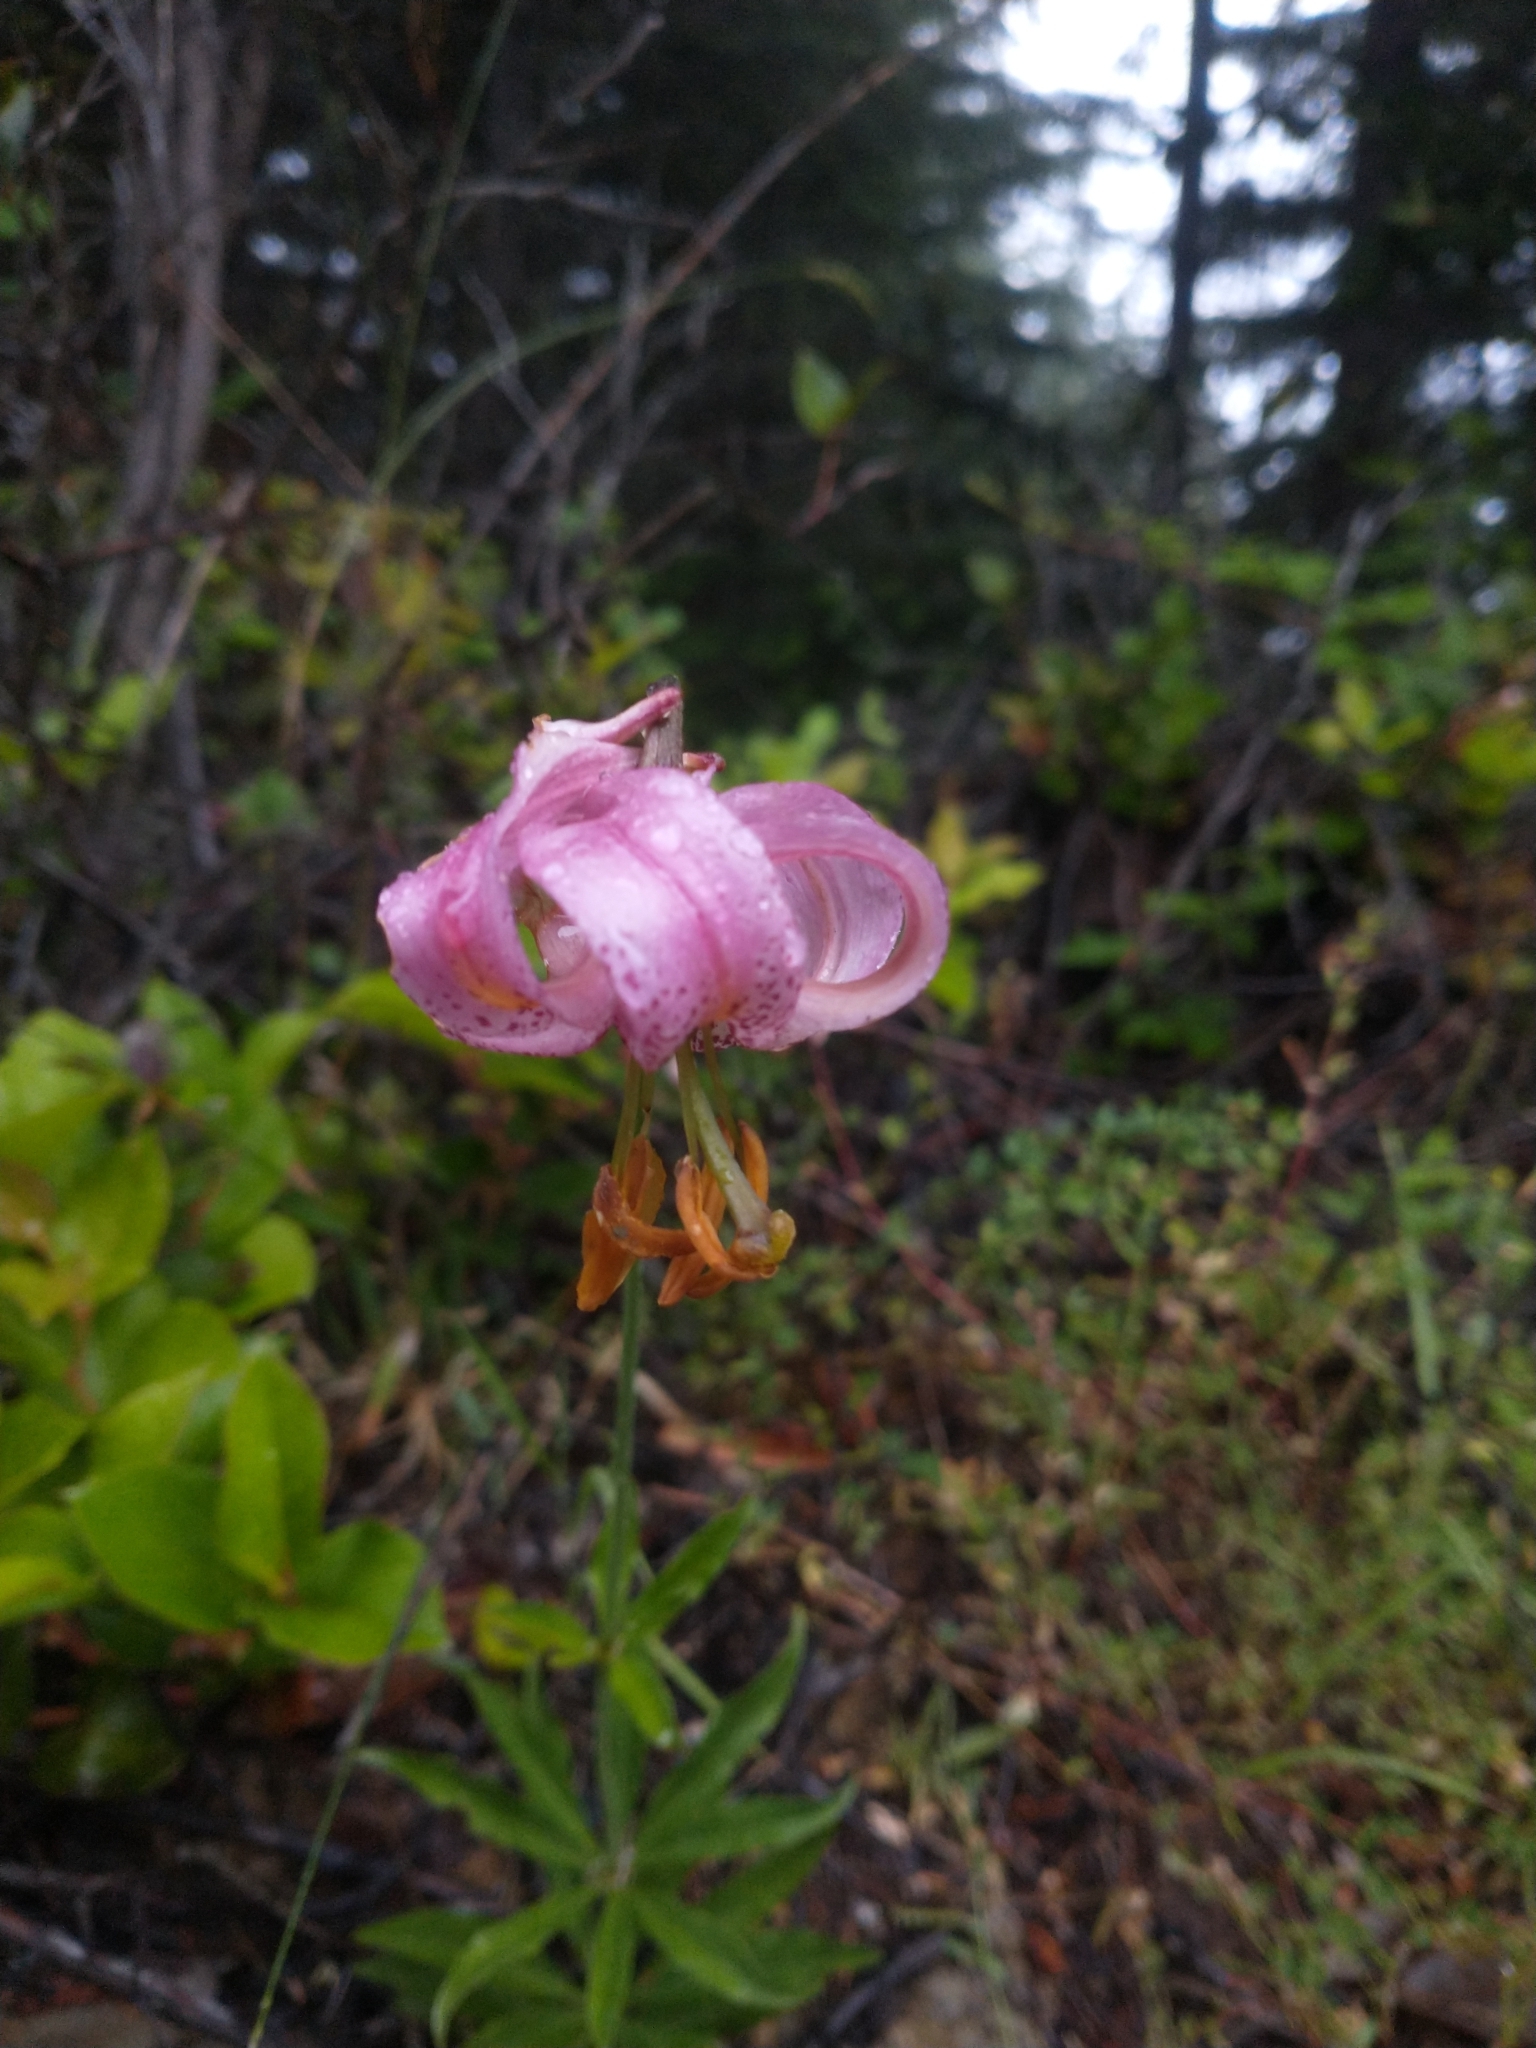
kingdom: Plantae
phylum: Tracheophyta
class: Liliopsida
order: Liliales
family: Liliaceae
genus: Lilium
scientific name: Lilium kelloggii
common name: Kellogg's lily
